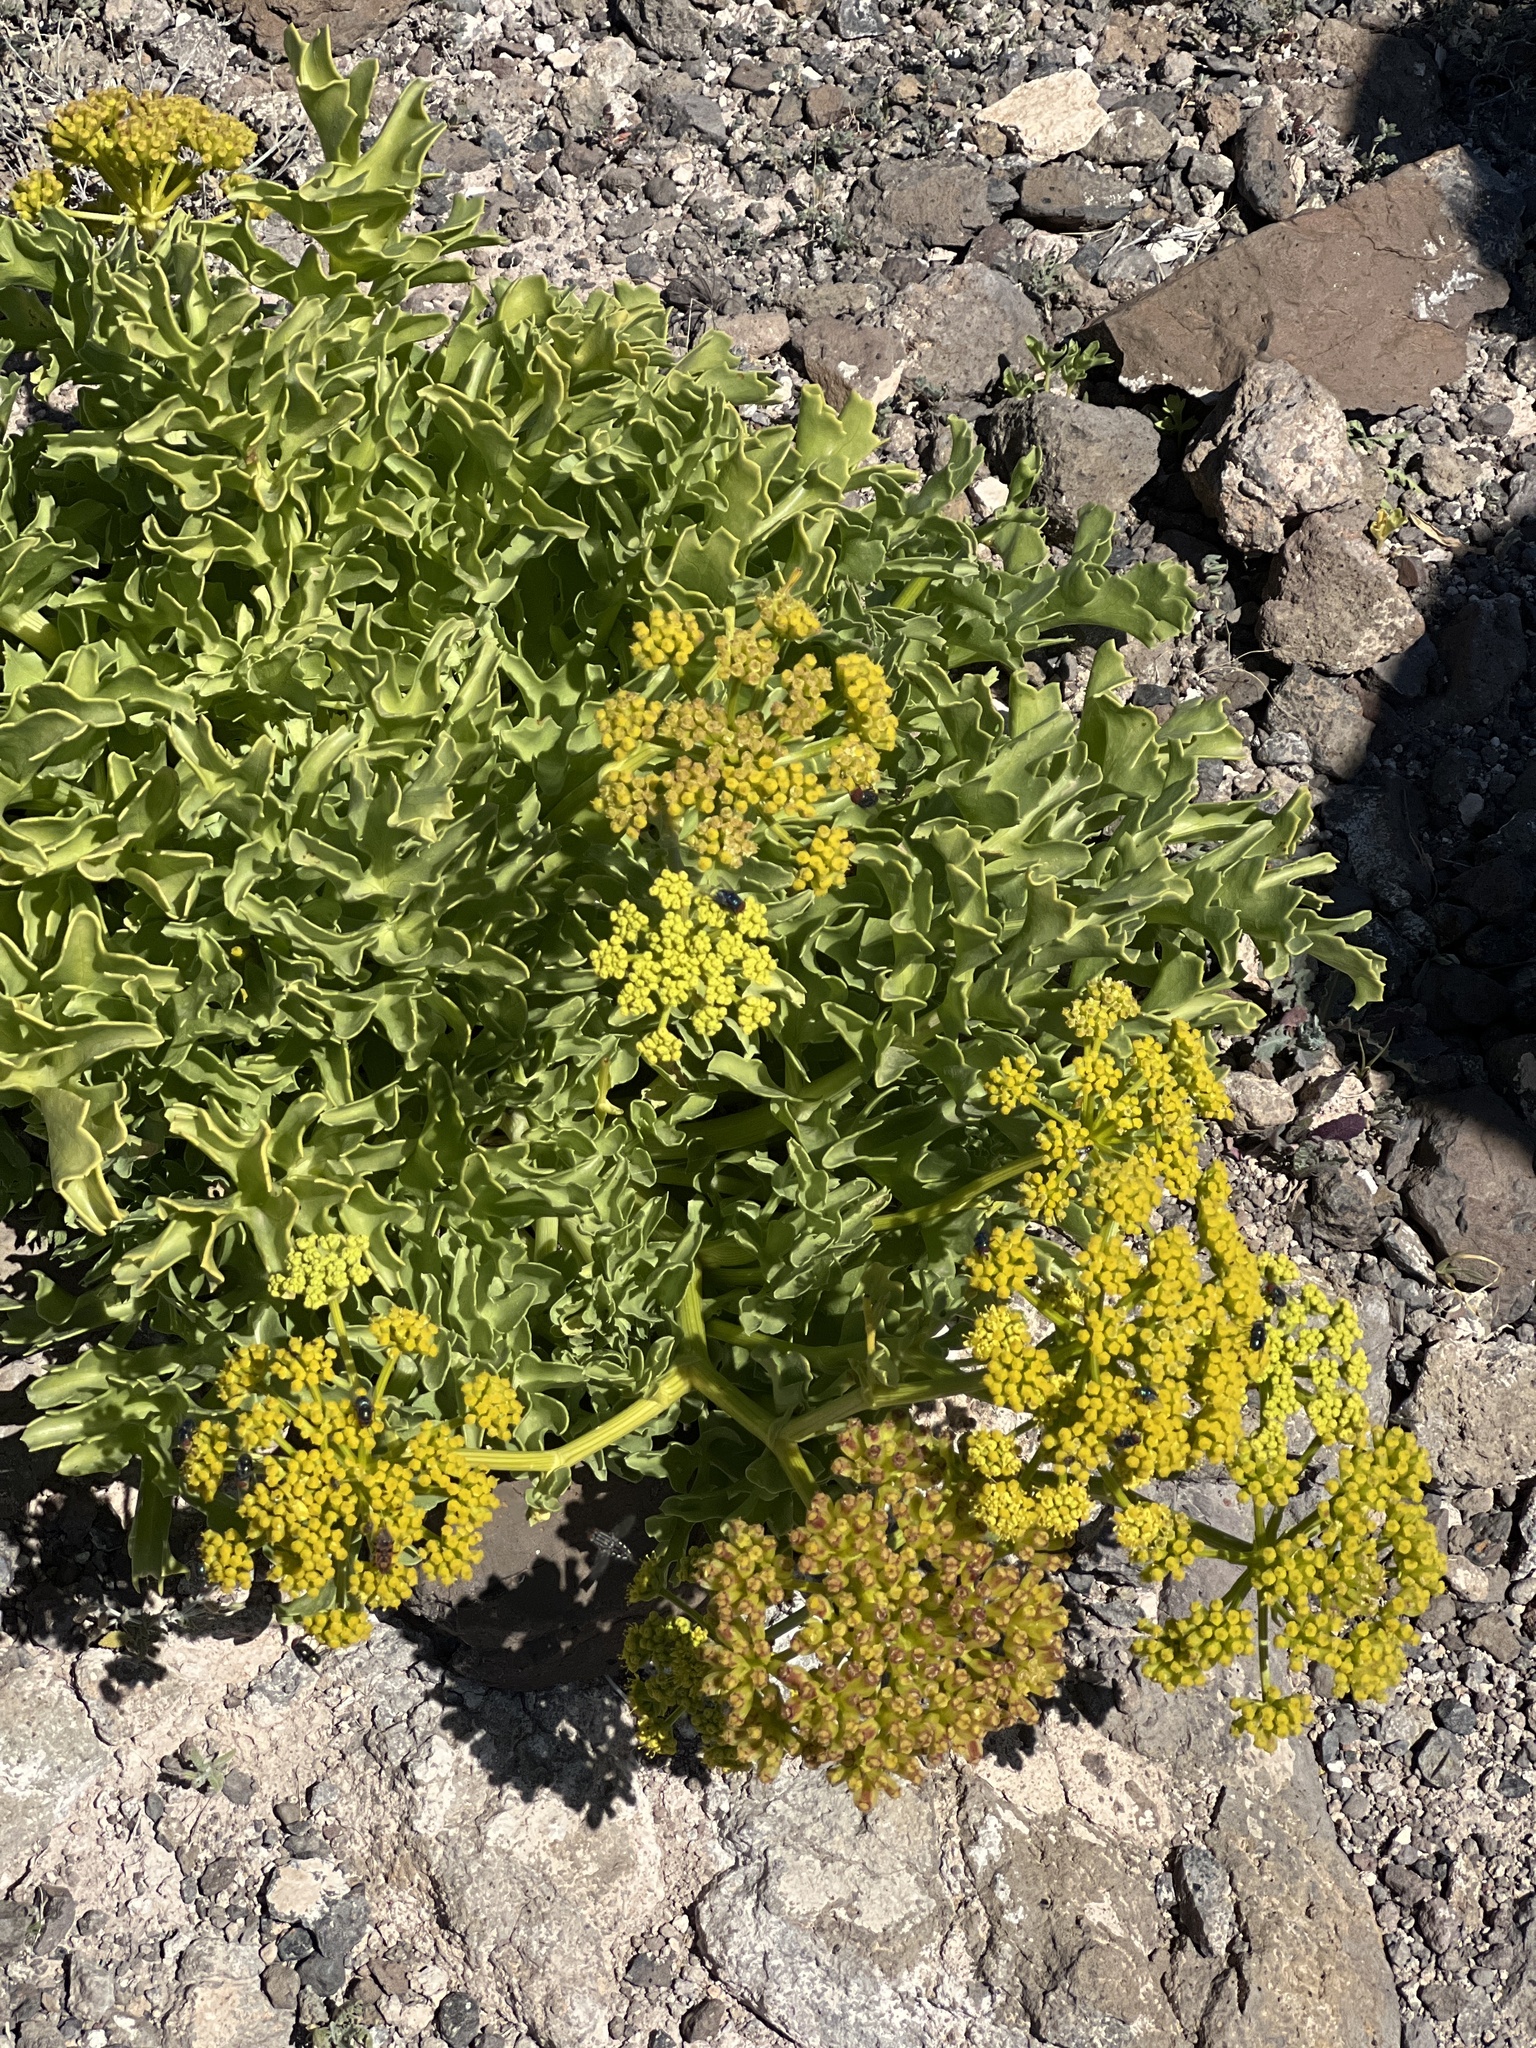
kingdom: Plantae
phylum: Tracheophyta
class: Magnoliopsida
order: Apiales
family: Apiaceae
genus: Astydamia
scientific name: Astydamia latifolia
